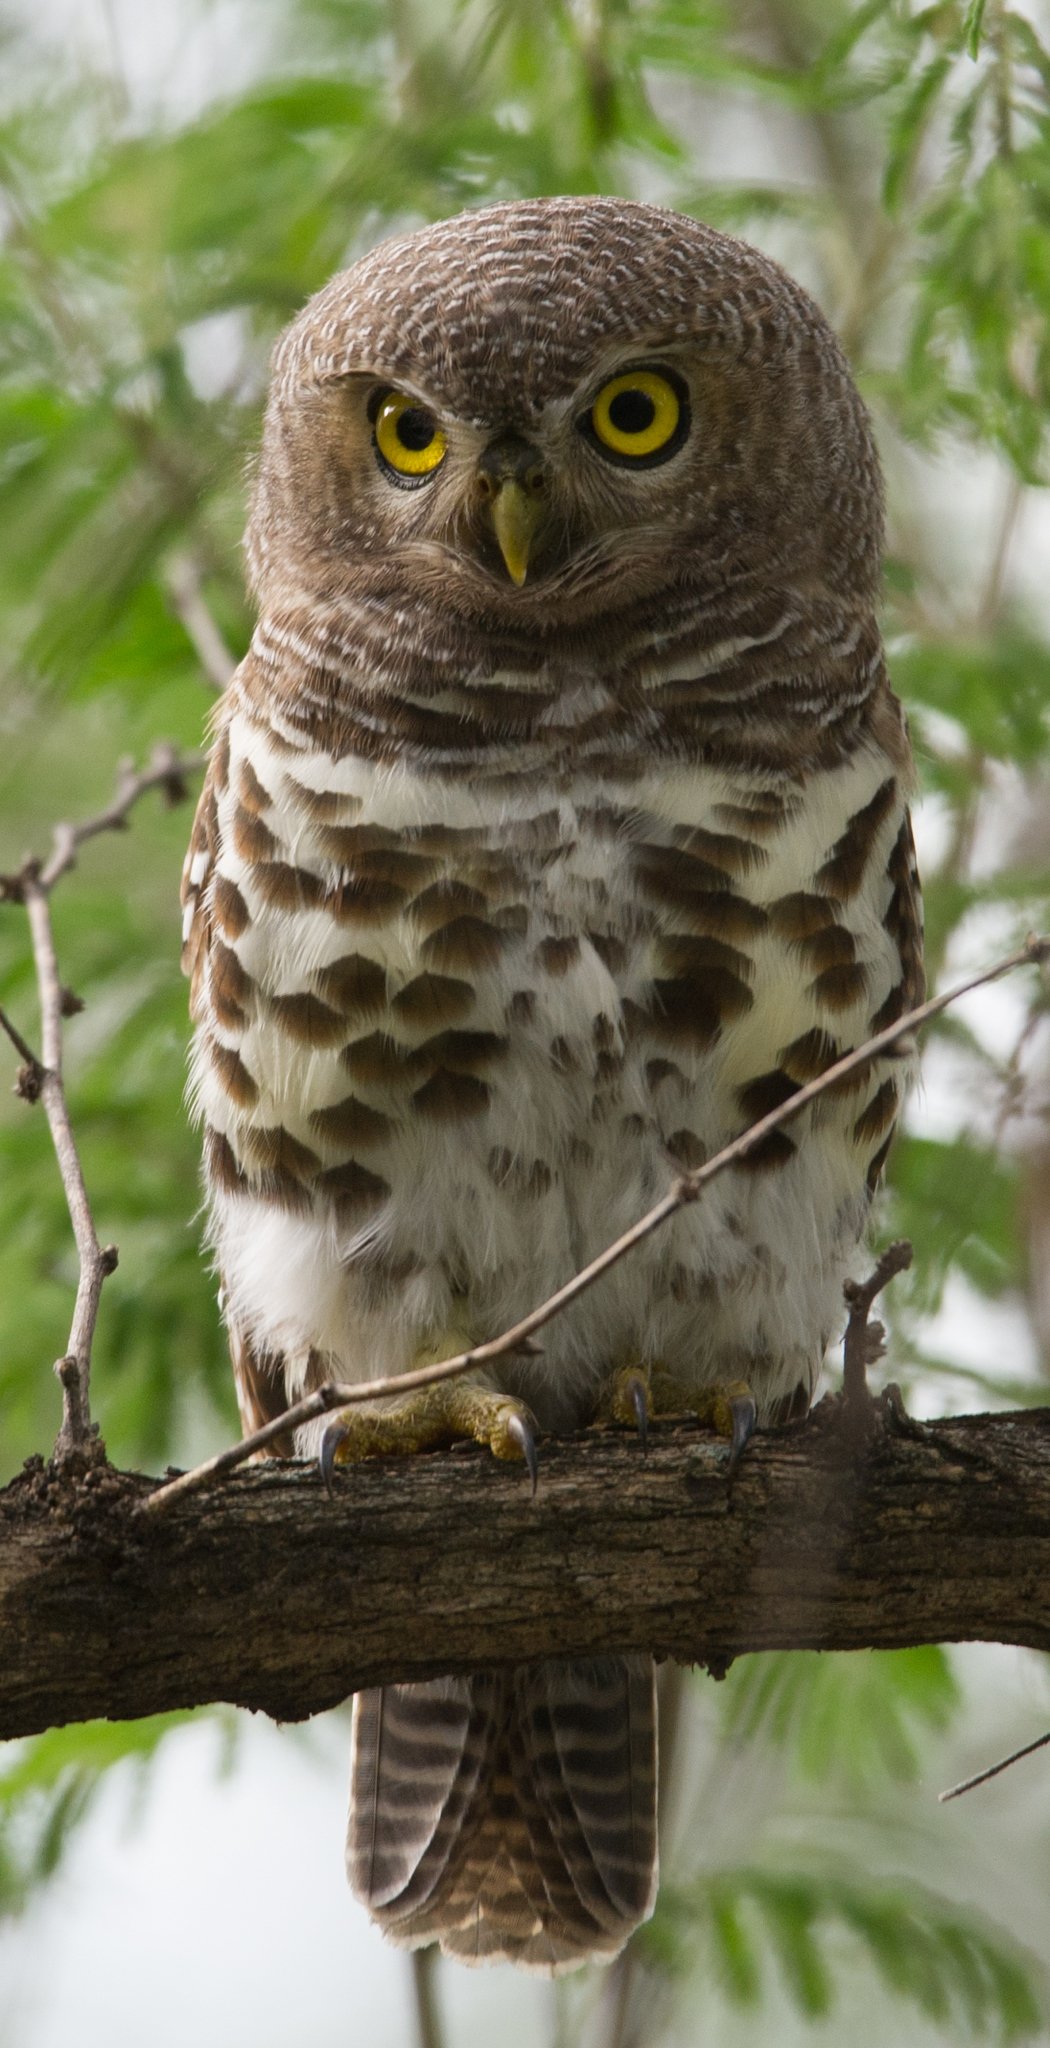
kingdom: Animalia
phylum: Chordata
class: Aves
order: Strigiformes
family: Strigidae
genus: Glaucidium
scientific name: Glaucidium capense
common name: African barred owlet
